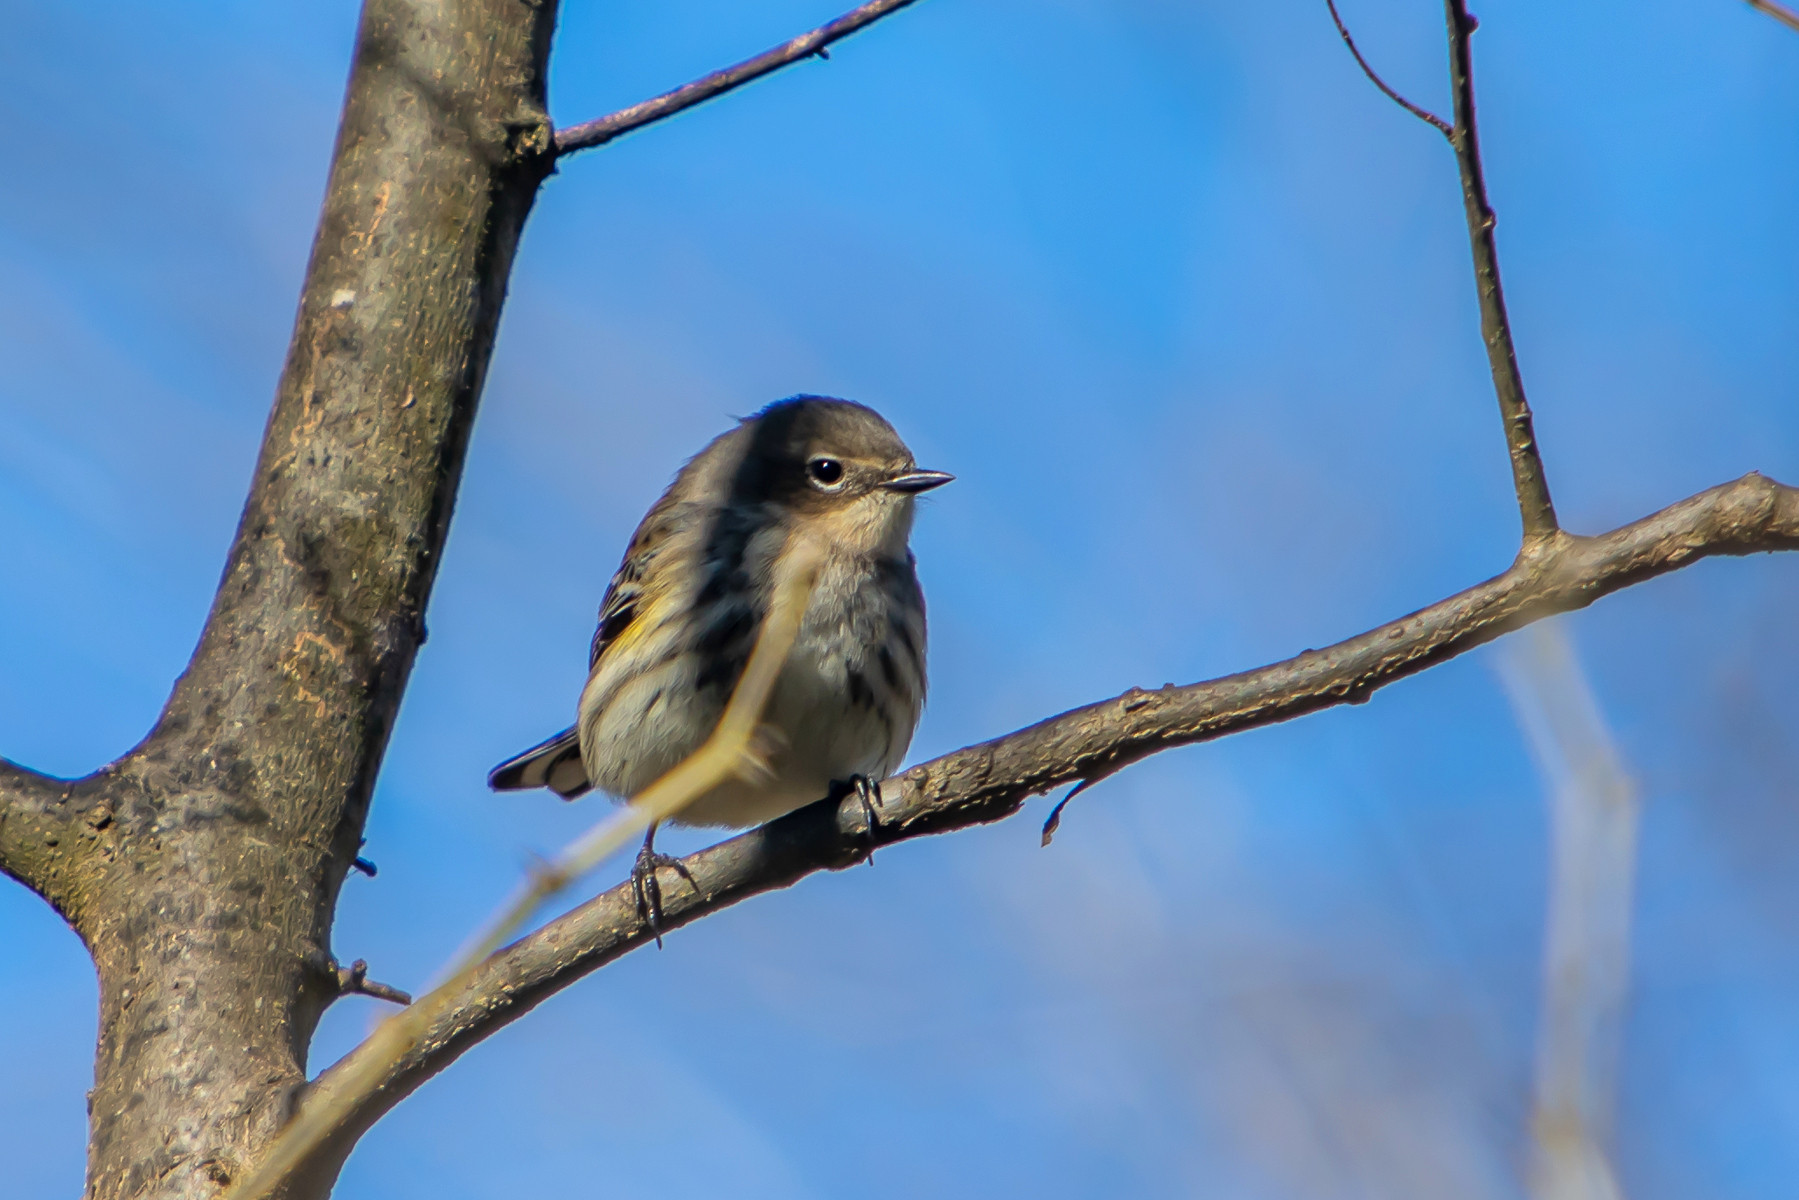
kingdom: Animalia
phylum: Chordata
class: Aves
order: Passeriformes
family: Parulidae
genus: Setophaga
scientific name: Setophaga coronata
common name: Myrtle warbler
